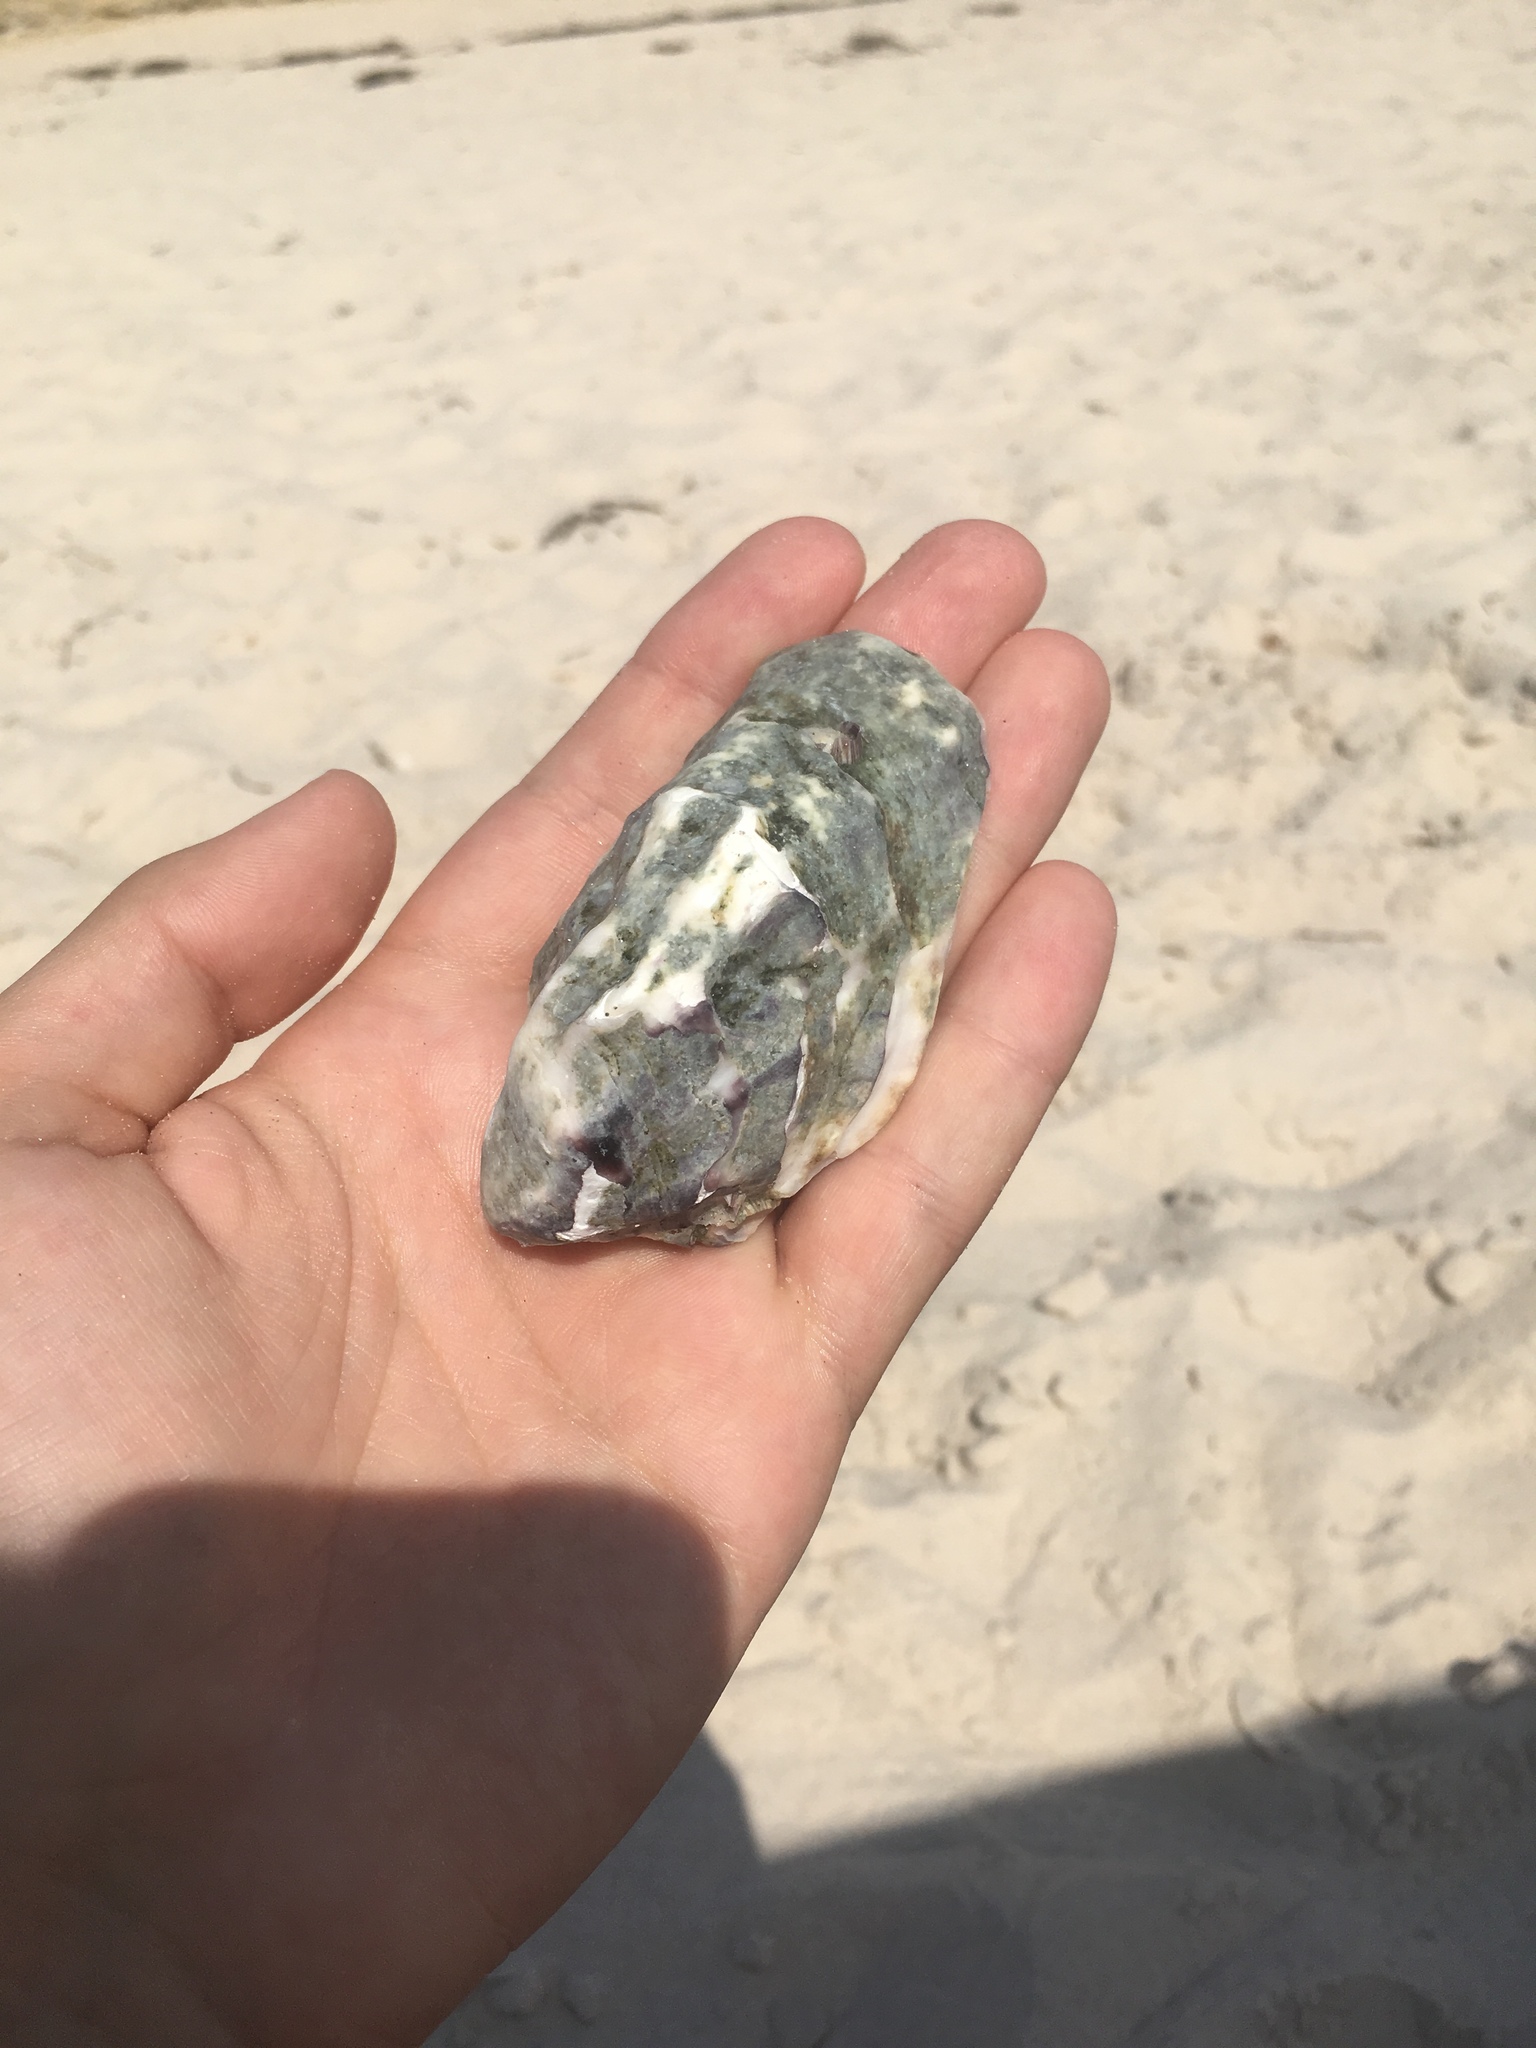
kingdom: Animalia
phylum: Mollusca
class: Bivalvia
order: Ostreida
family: Ostreidae
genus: Magallana
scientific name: Magallana gigas
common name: Pacific oyster
